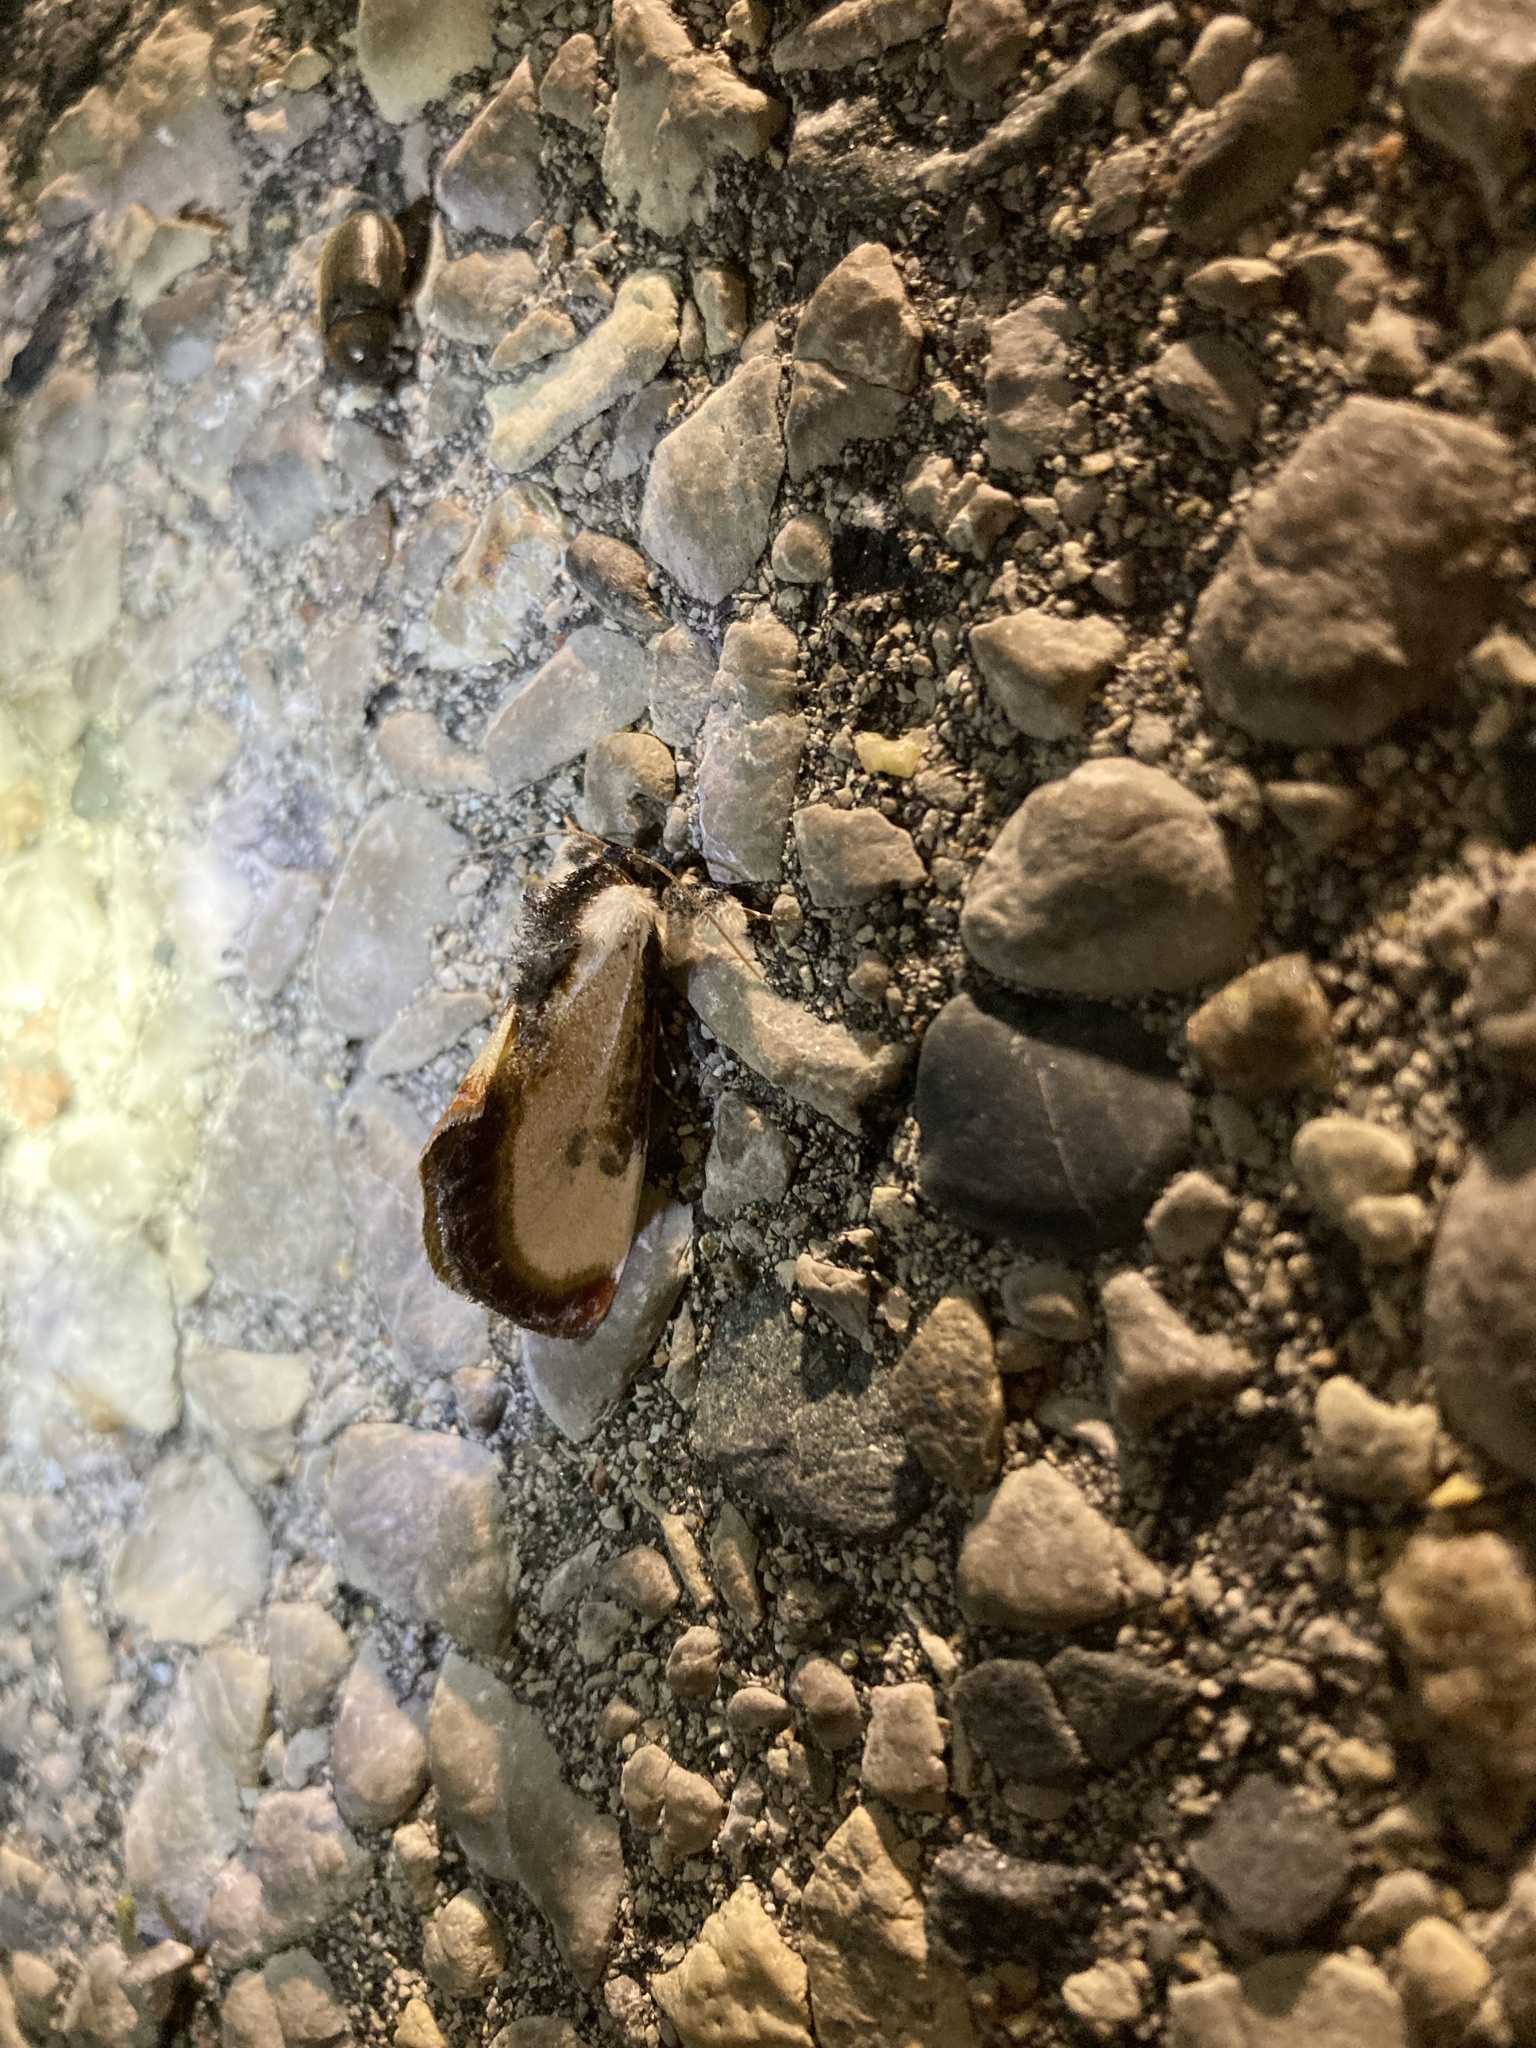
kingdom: Animalia
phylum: Arthropoda
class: Insecta
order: Lepidoptera
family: Noctuidae
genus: Eudryas
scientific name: Eudryas grata
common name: Beautiful wood-nymph
